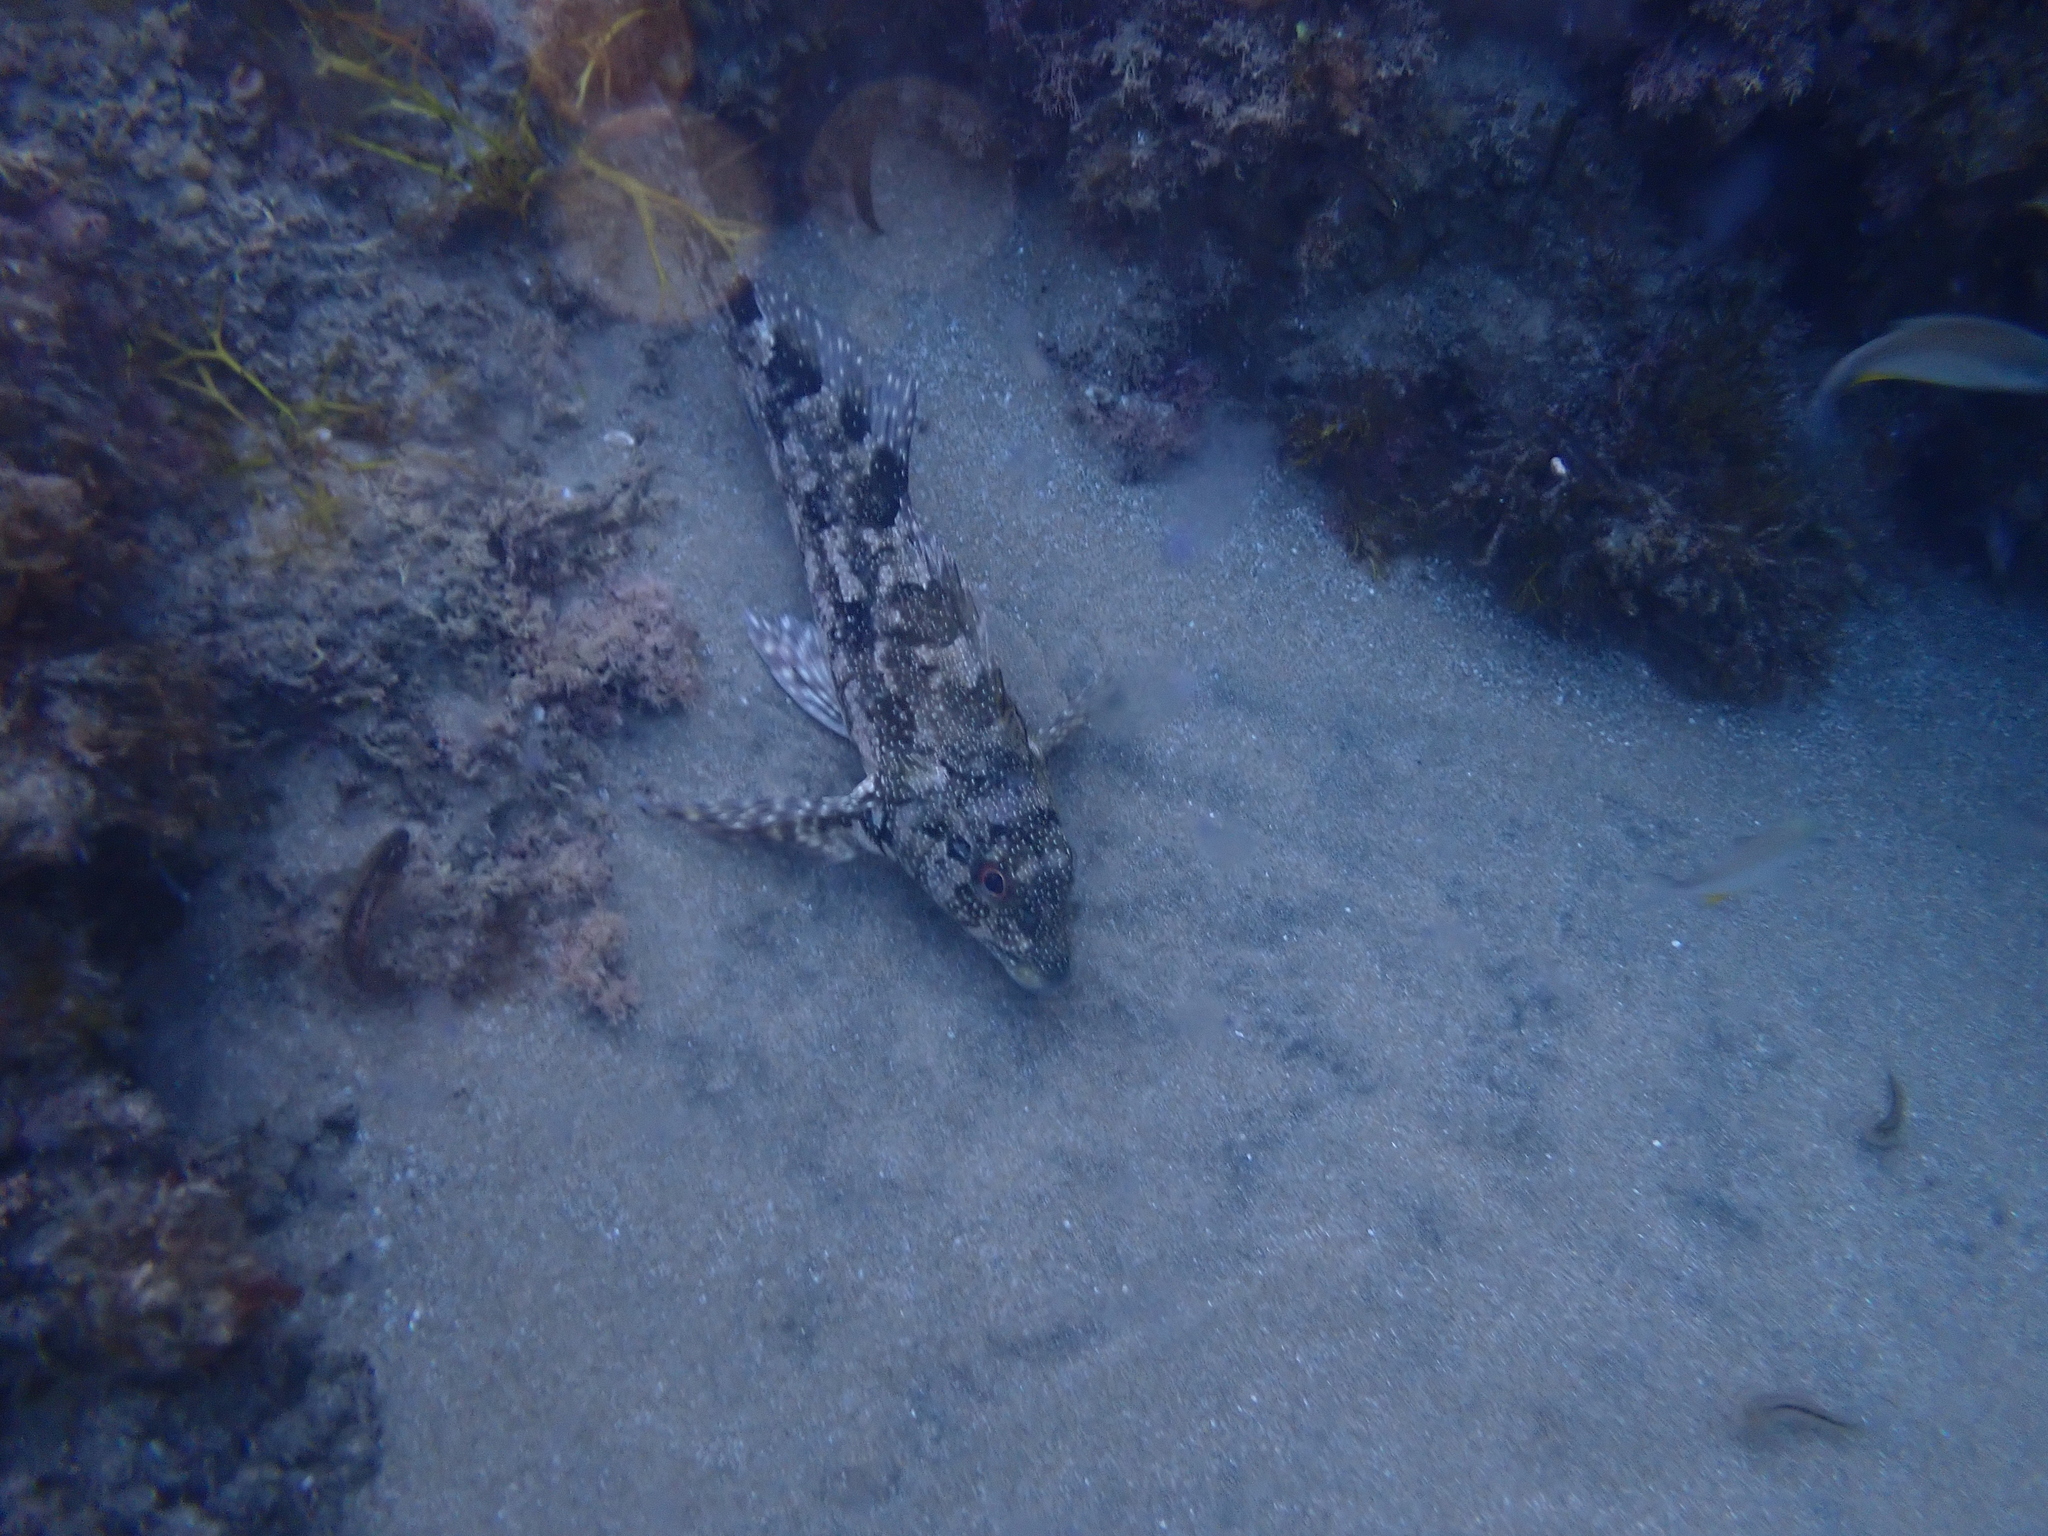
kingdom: Animalia
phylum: Chordata
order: Perciformes
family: Chironemidae
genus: Chironemus
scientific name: Chironemus marmoratus
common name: Kelpfish
